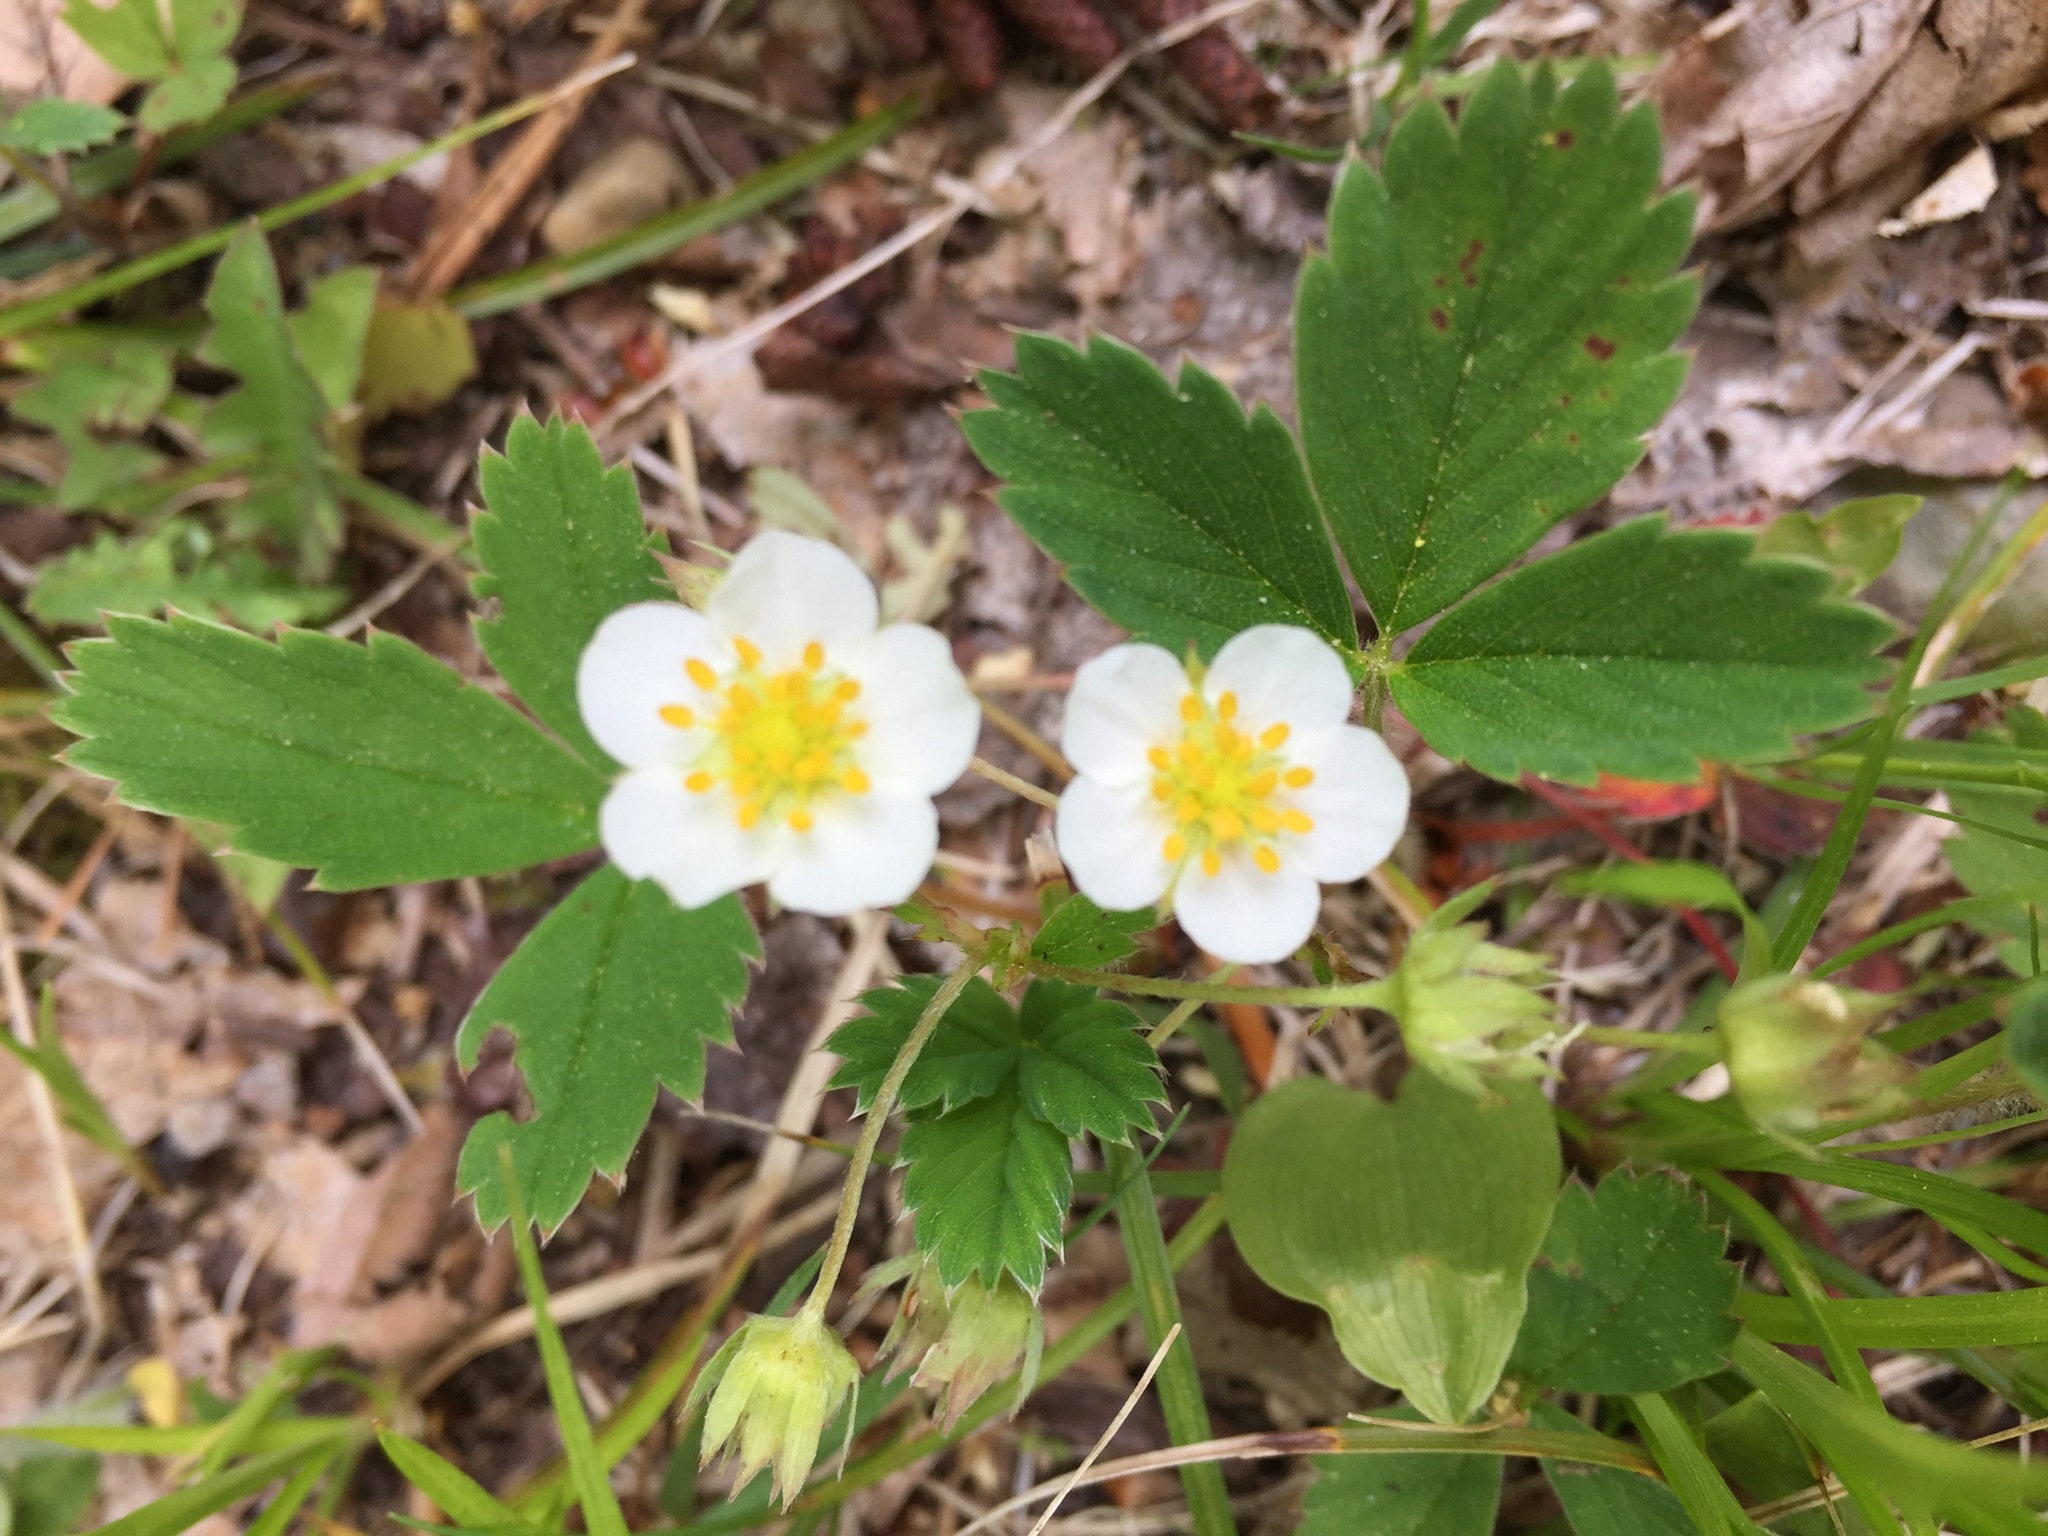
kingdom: Plantae
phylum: Tracheophyta
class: Magnoliopsida
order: Rosales
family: Rosaceae
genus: Fragaria
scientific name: Fragaria virginiana
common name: Thickleaved wild strawberry
